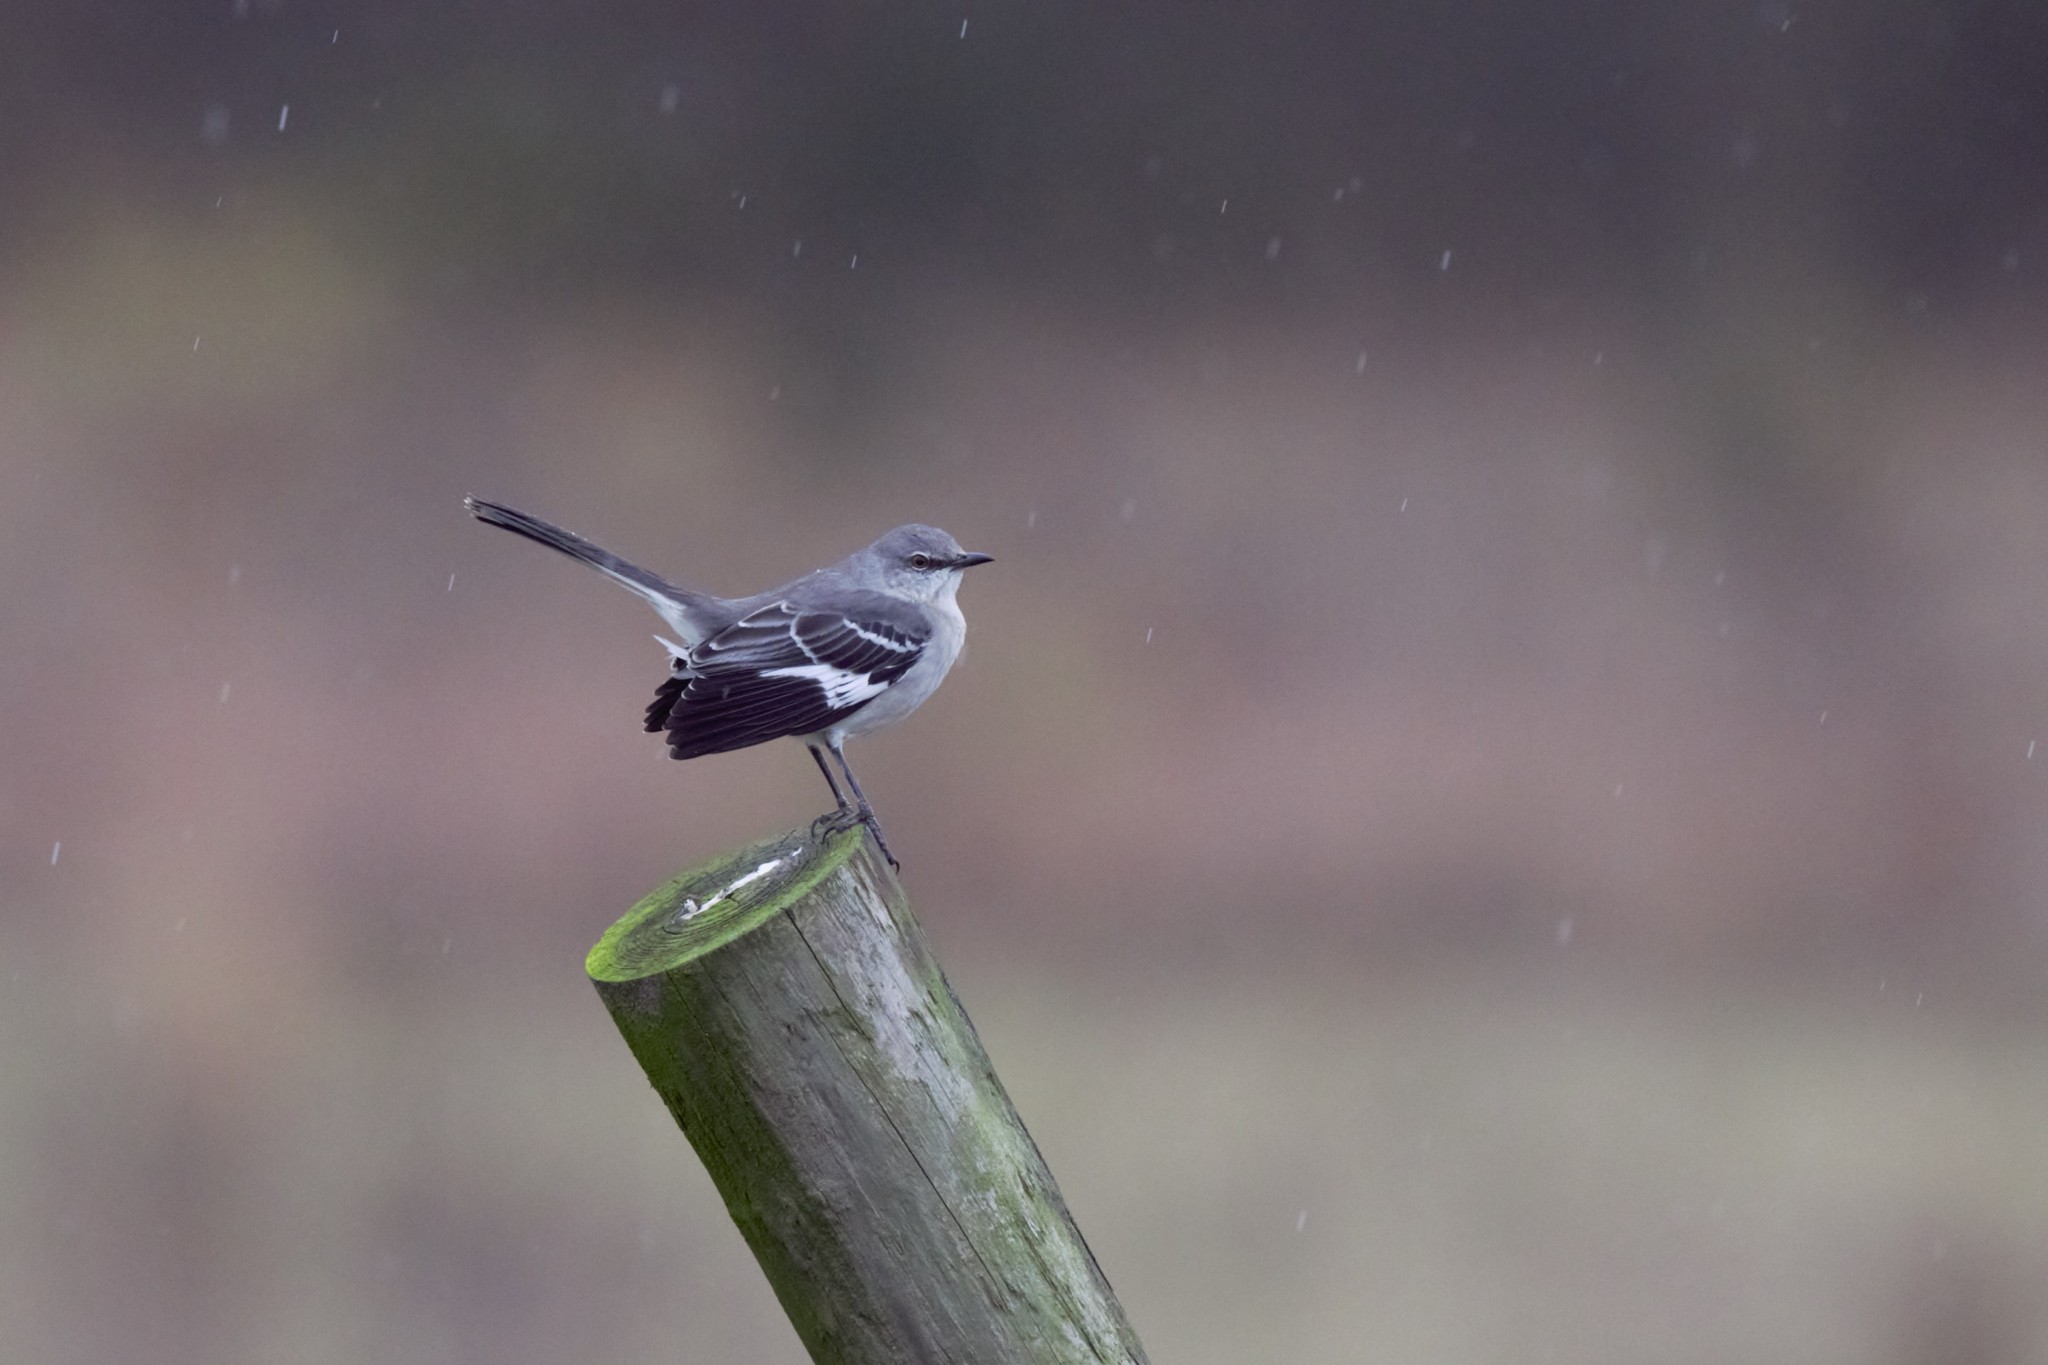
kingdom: Animalia
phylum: Chordata
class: Aves
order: Passeriformes
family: Mimidae
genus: Mimus
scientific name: Mimus polyglottos
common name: Northern mockingbird
